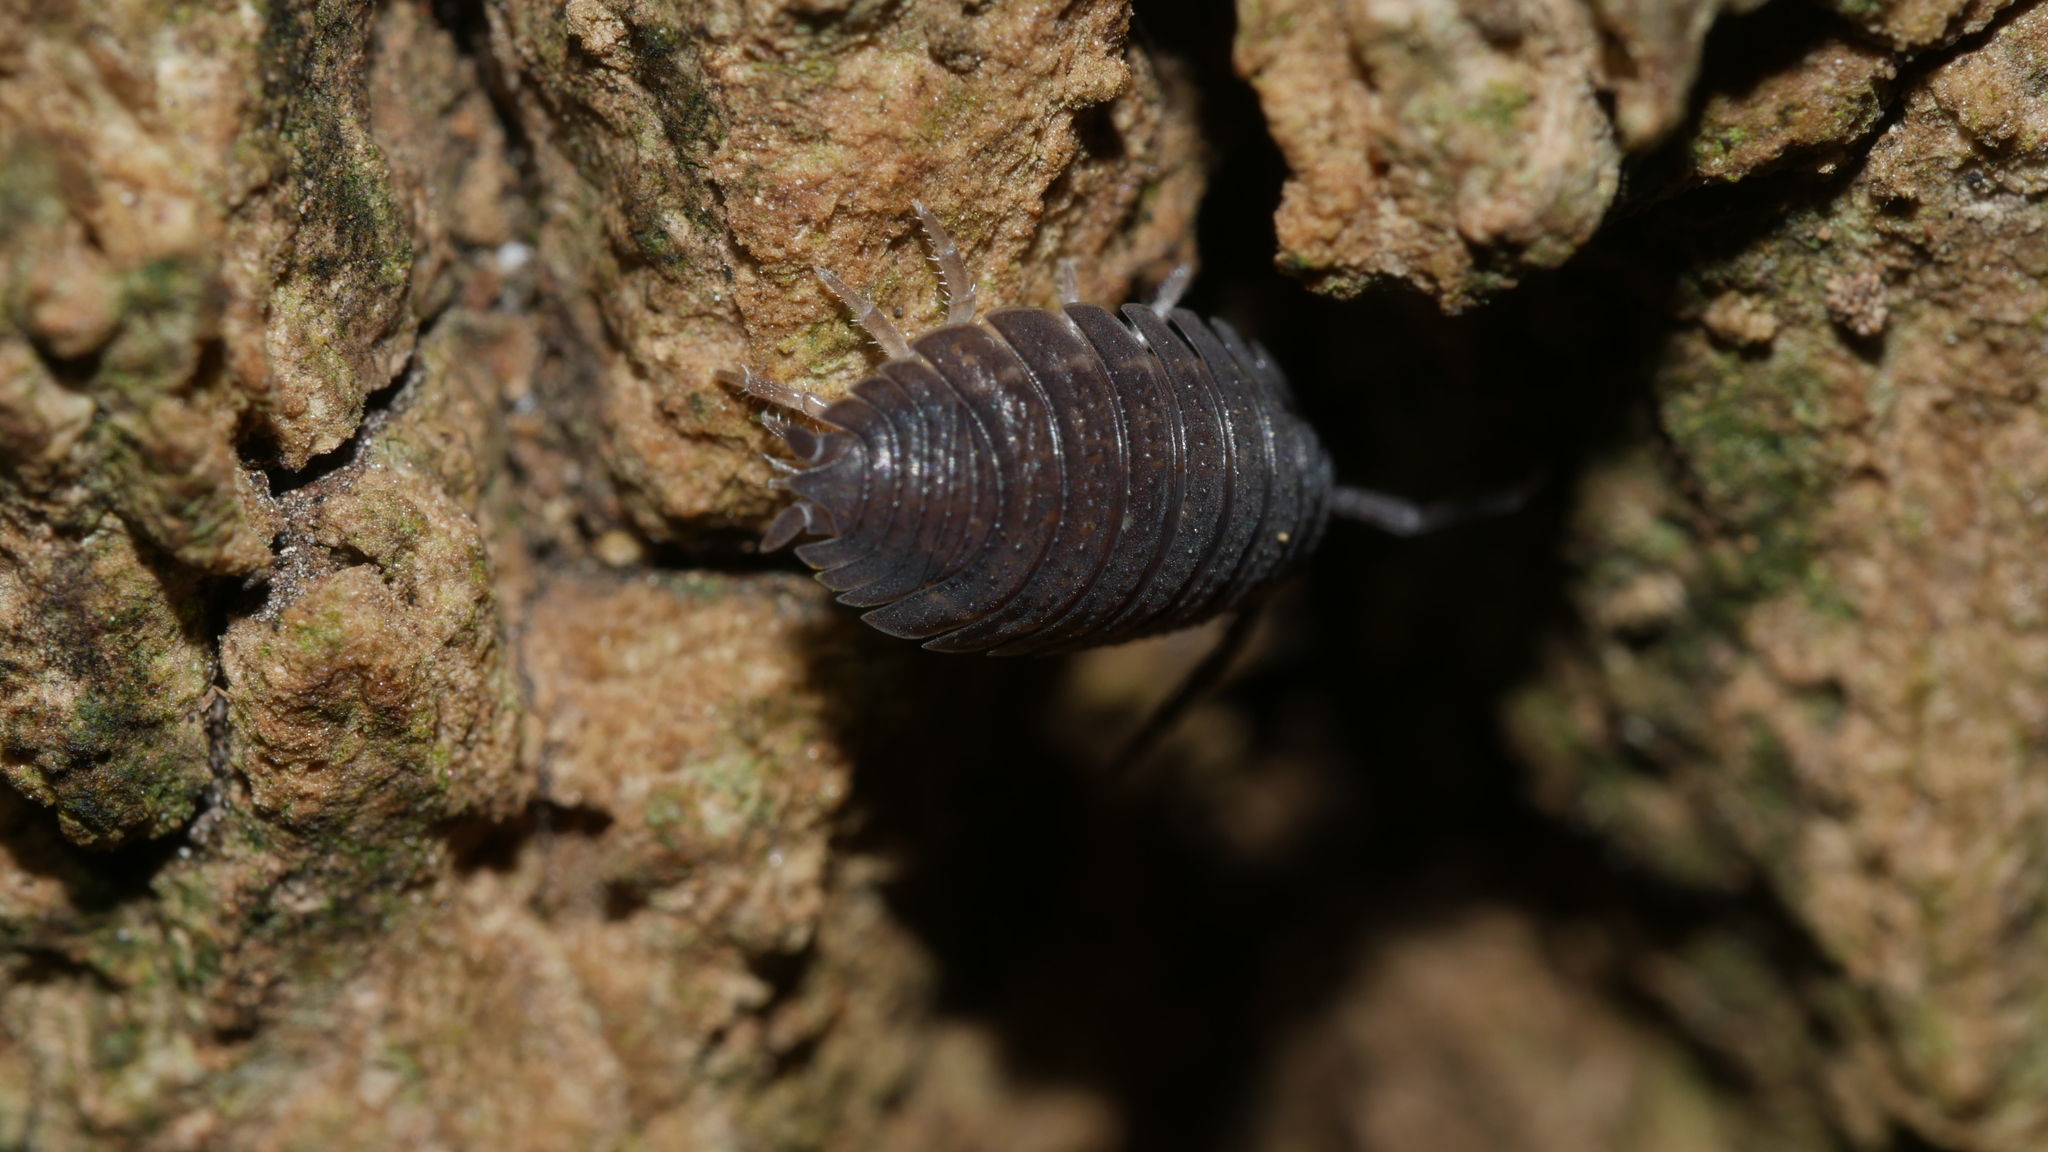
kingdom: Animalia
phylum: Arthropoda
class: Malacostraca
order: Isopoda
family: Porcellionidae
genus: Porcellio
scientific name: Porcellio scaber
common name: Common rough woodlouse
